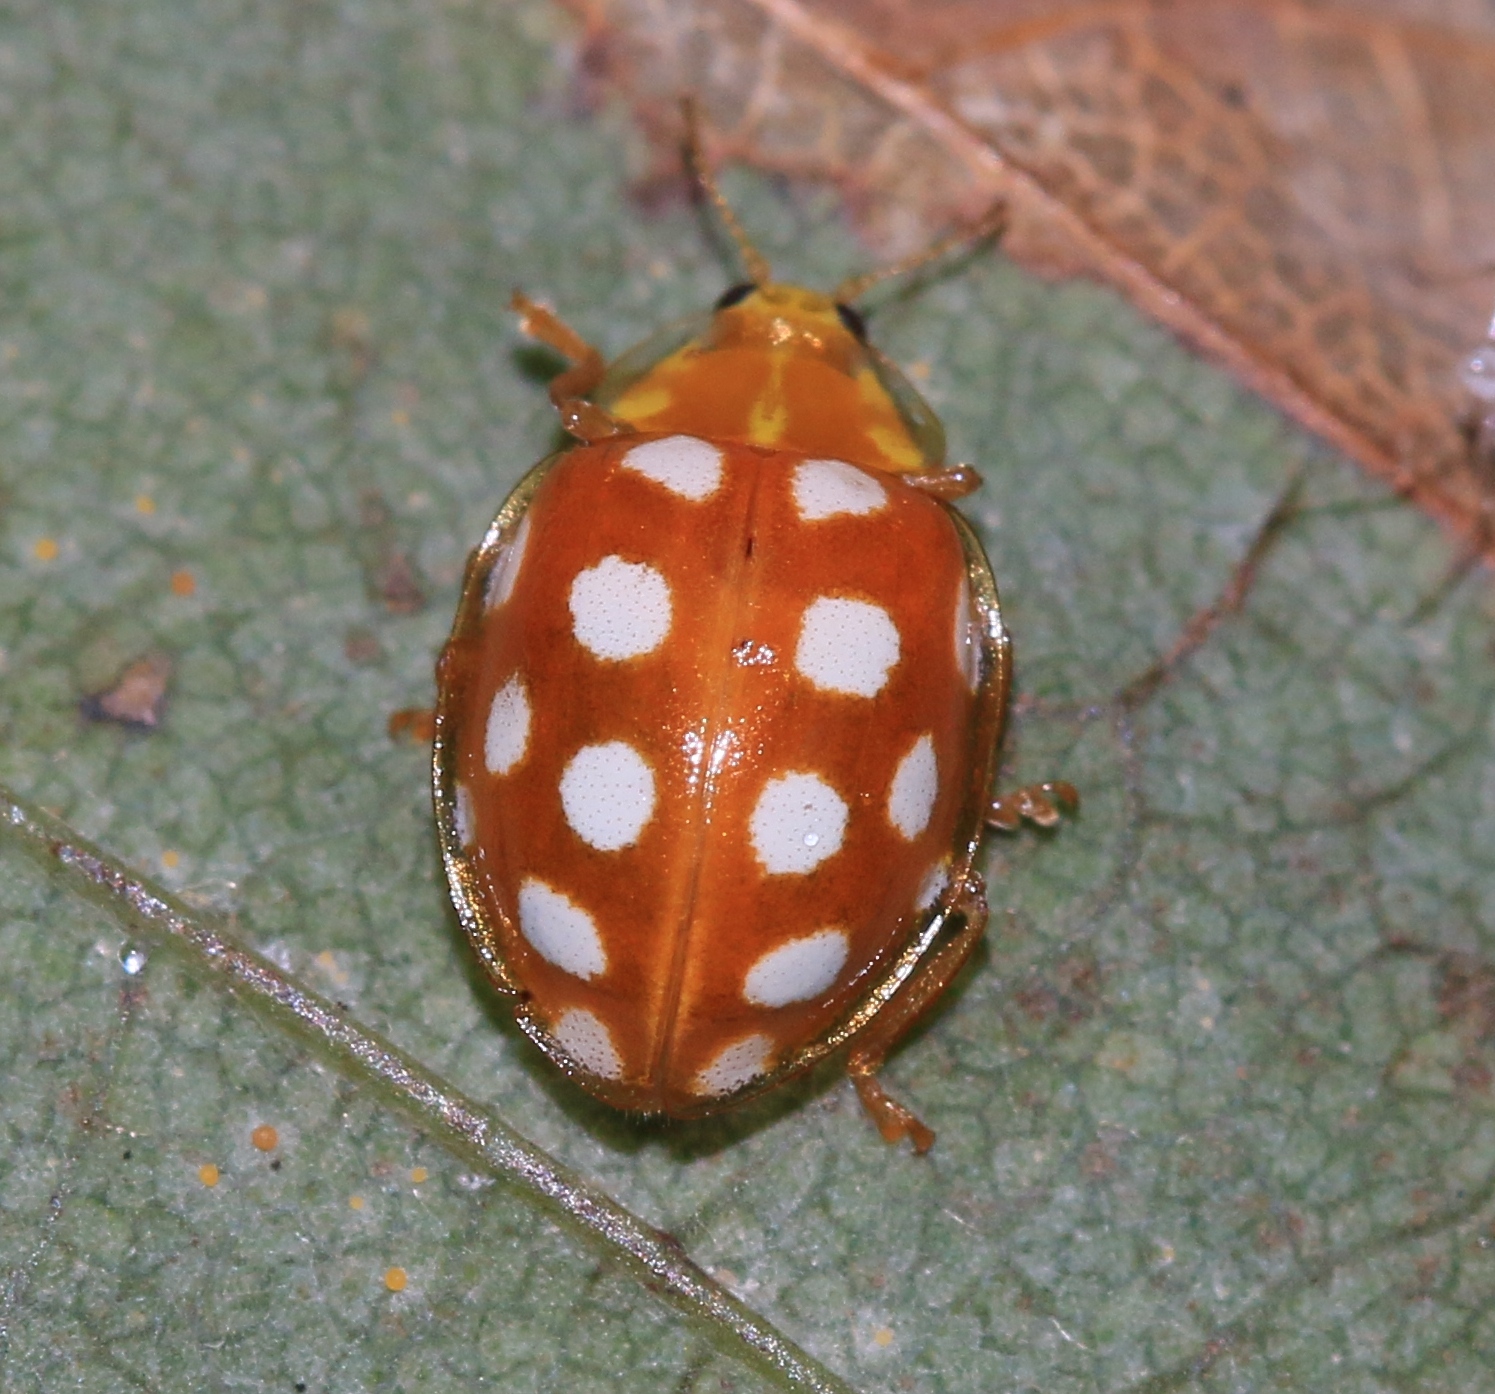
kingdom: Animalia
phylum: Arthropoda
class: Insecta
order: Coleoptera
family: Coccinellidae
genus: Halyzia
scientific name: Halyzia sedecimguttata
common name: Orange ladybird
